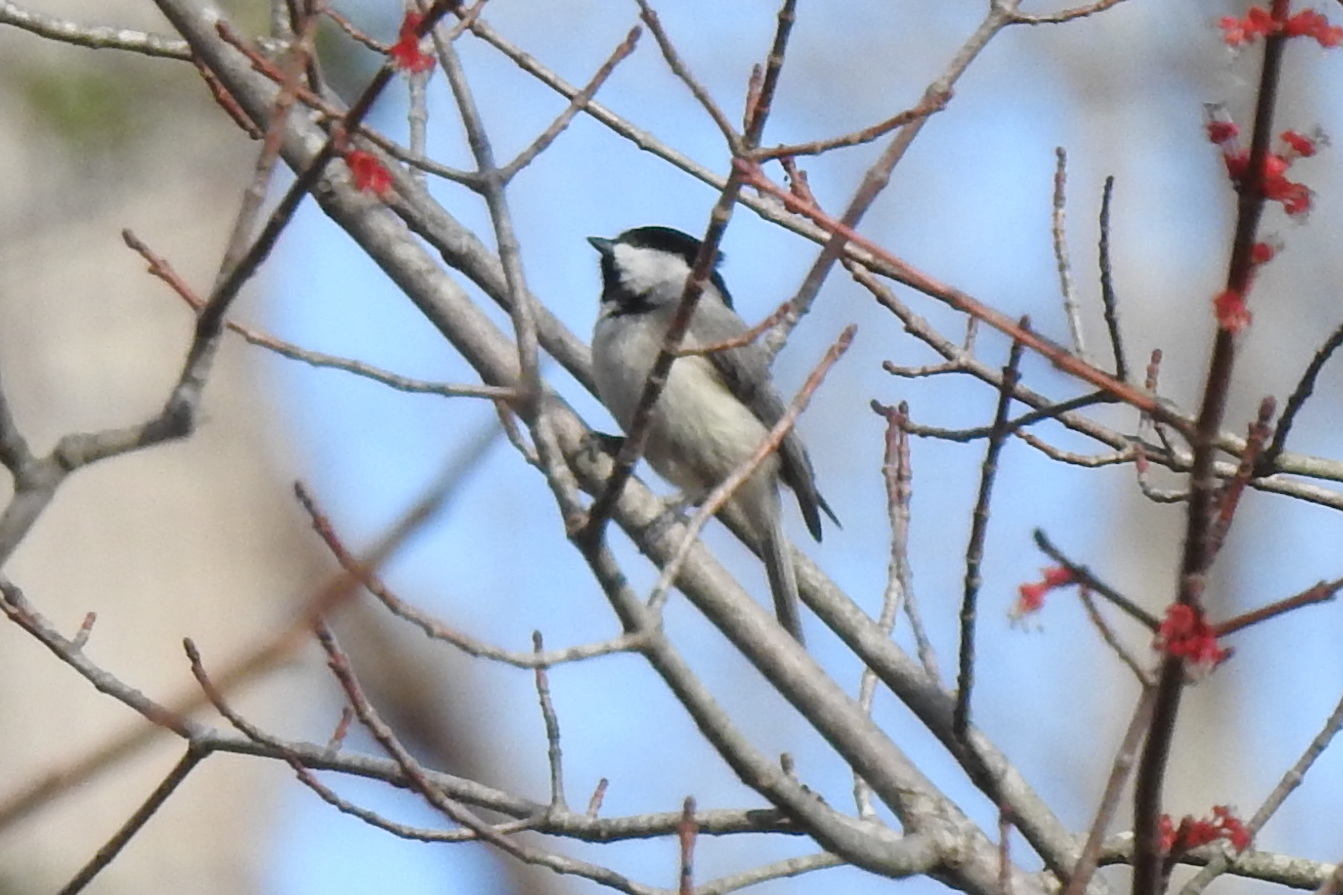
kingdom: Animalia
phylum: Chordata
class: Aves
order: Passeriformes
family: Paridae
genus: Poecile
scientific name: Poecile carolinensis
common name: Carolina chickadee
